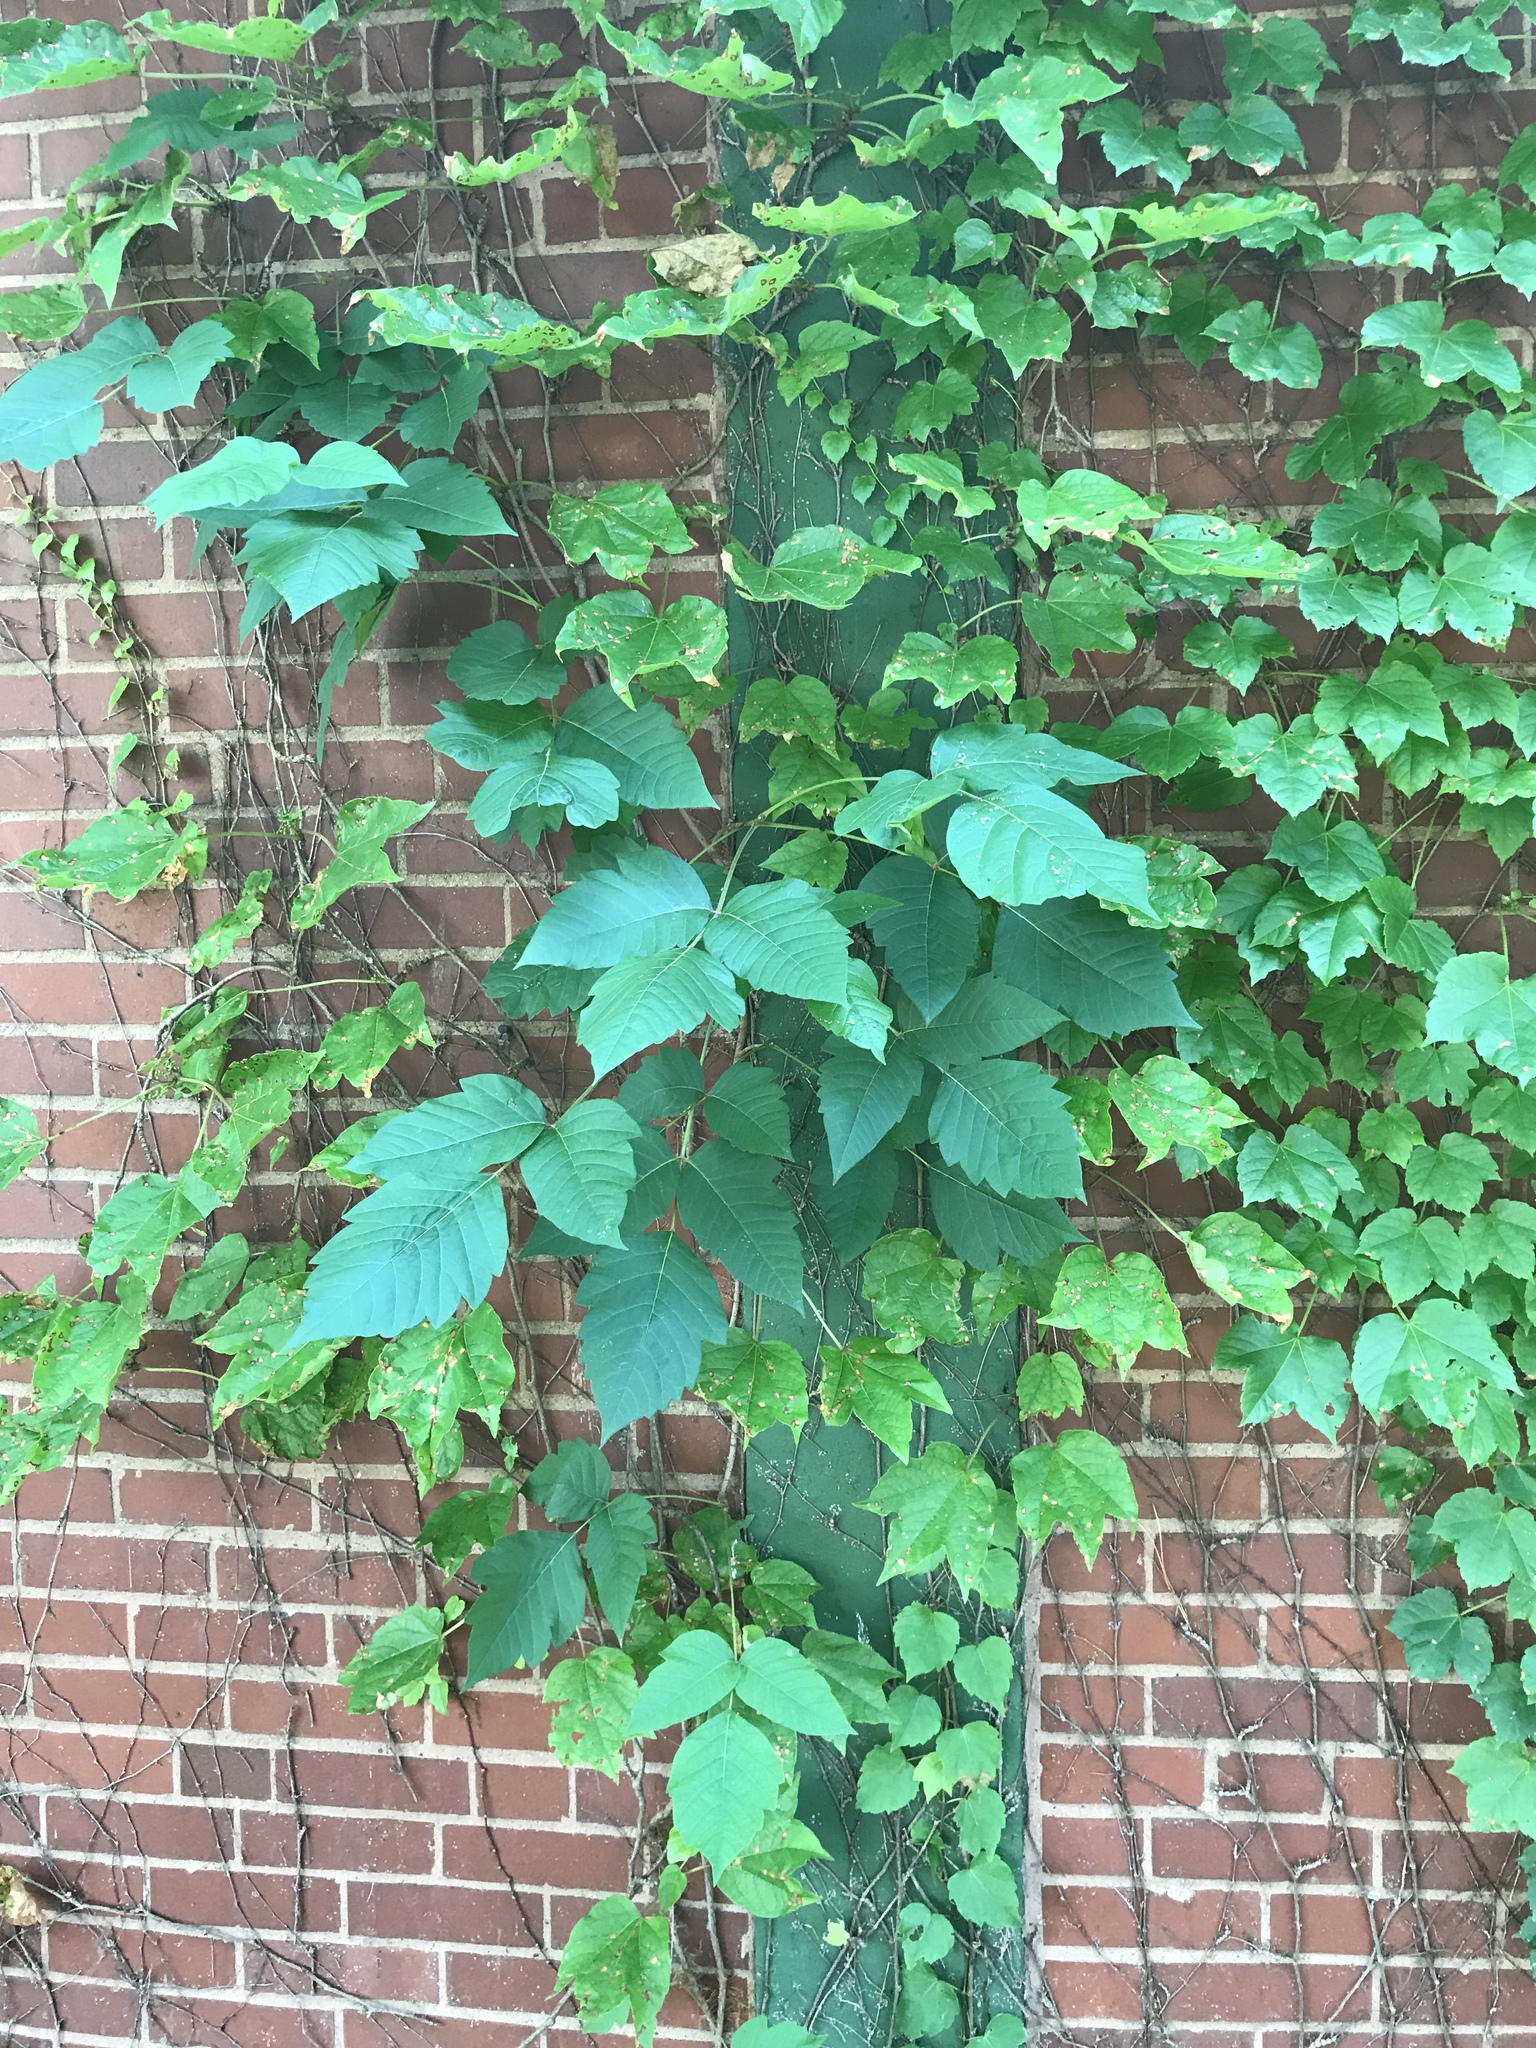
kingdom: Plantae
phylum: Tracheophyta
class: Magnoliopsida
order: Sapindales
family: Anacardiaceae
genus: Toxicodendron
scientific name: Toxicodendron radicans
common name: Poison ivy
